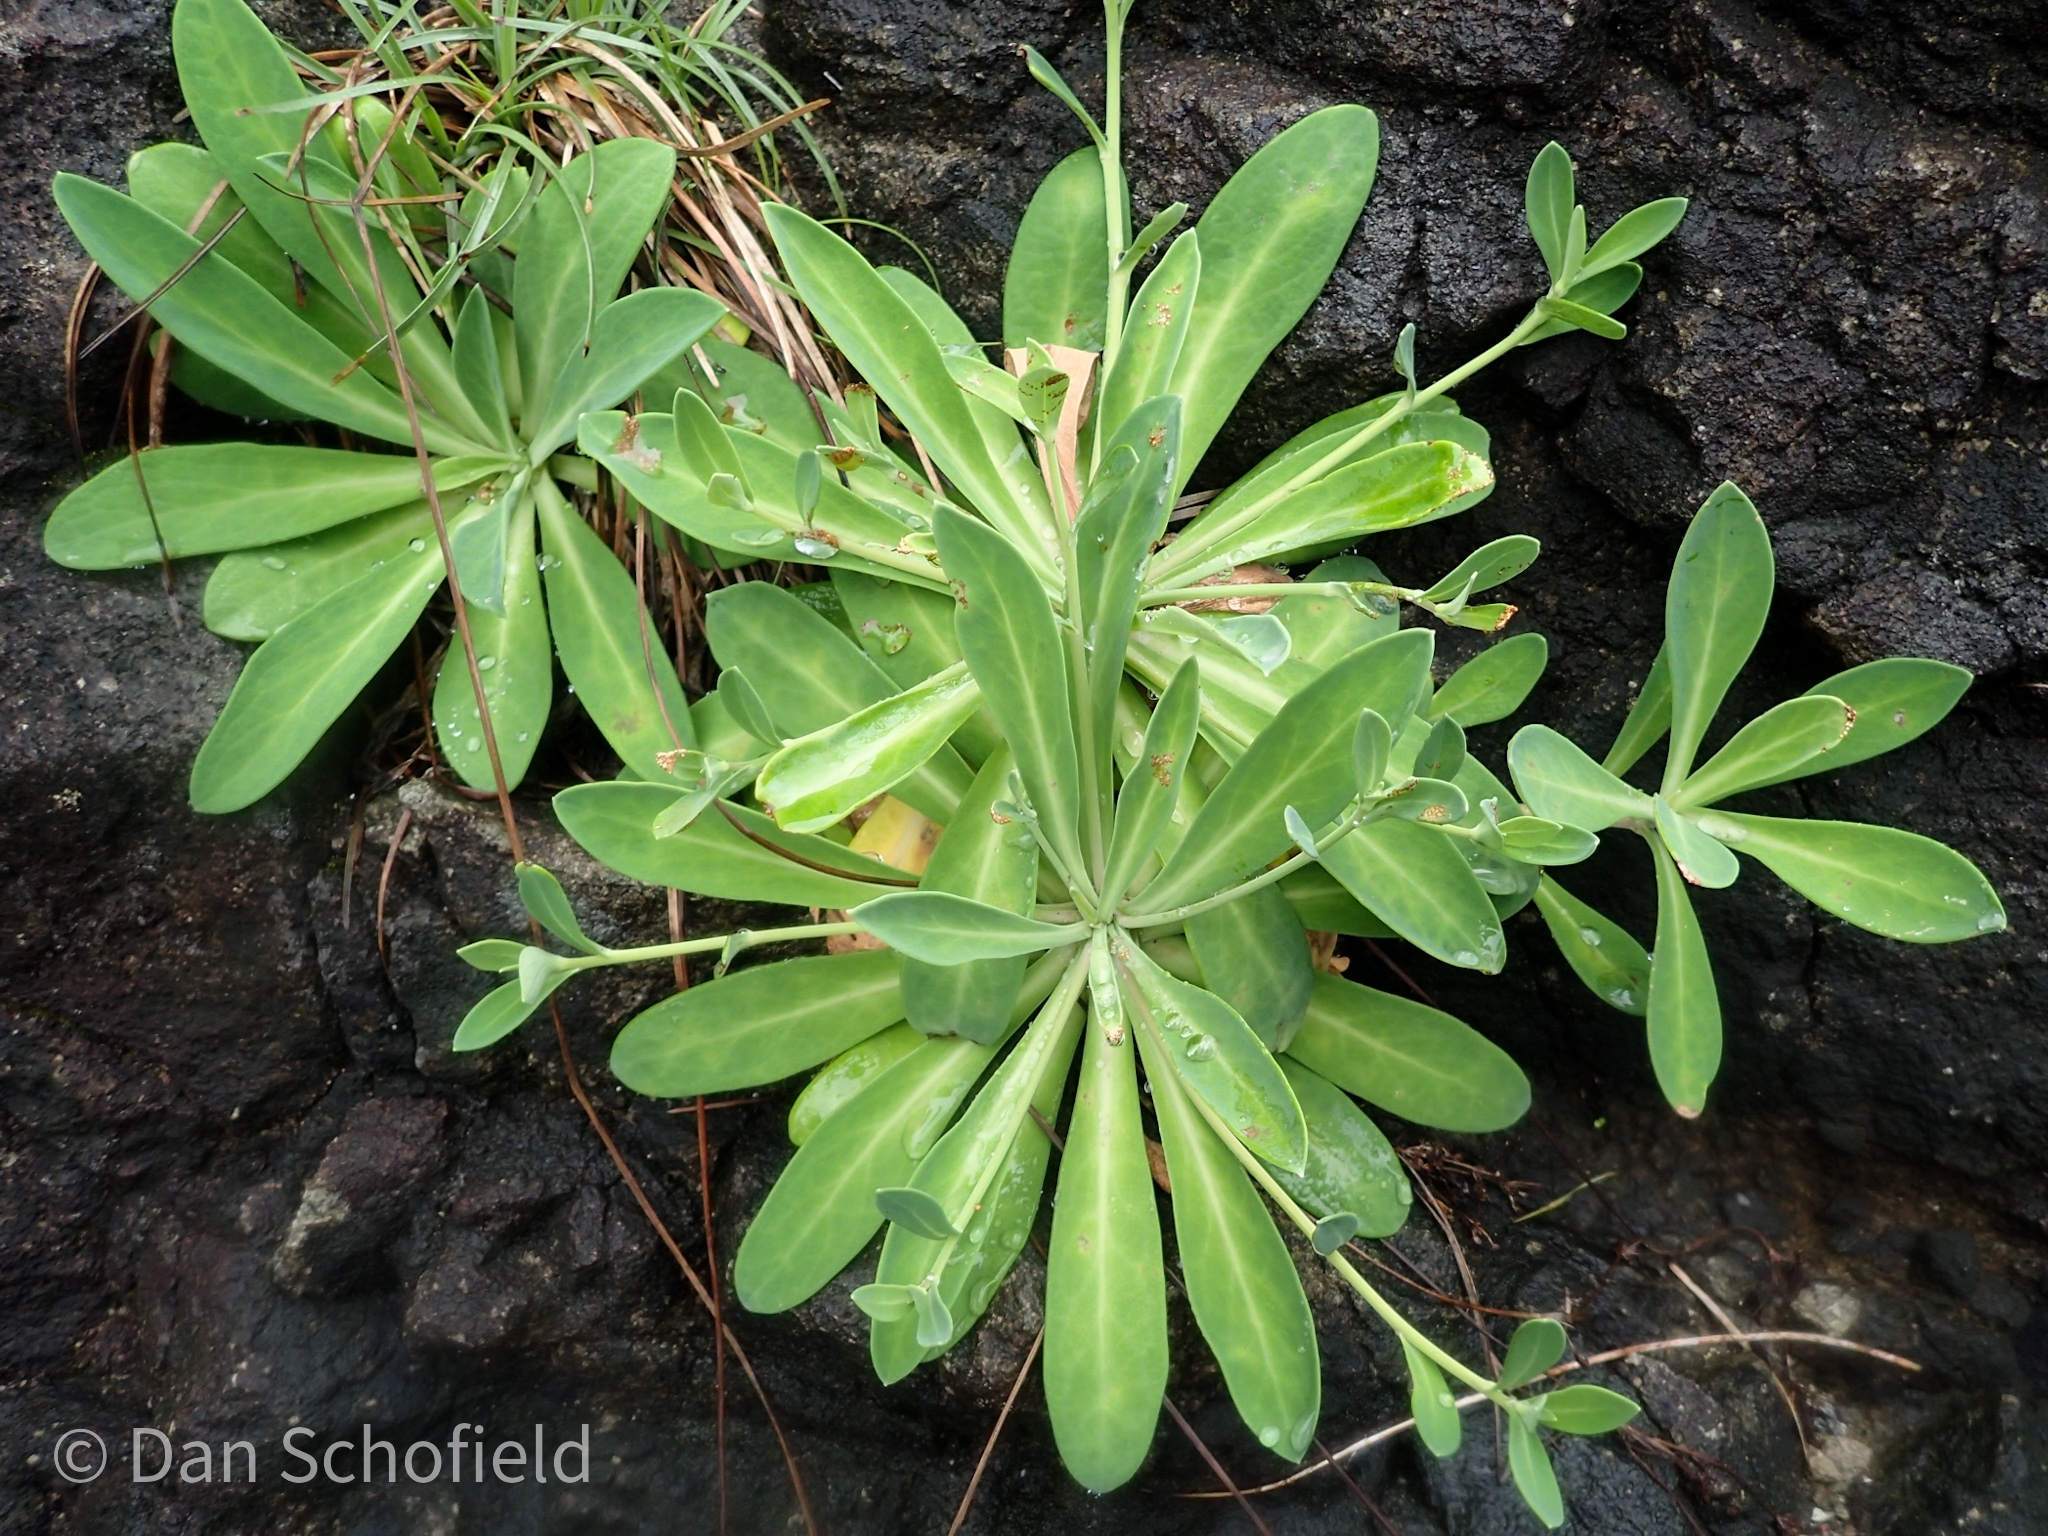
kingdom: Plantae
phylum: Tracheophyta
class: Magnoliopsida
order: Asterales
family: Asteraceae
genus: Crepidiastrum
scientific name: Crepidiastrum lanceolatum
